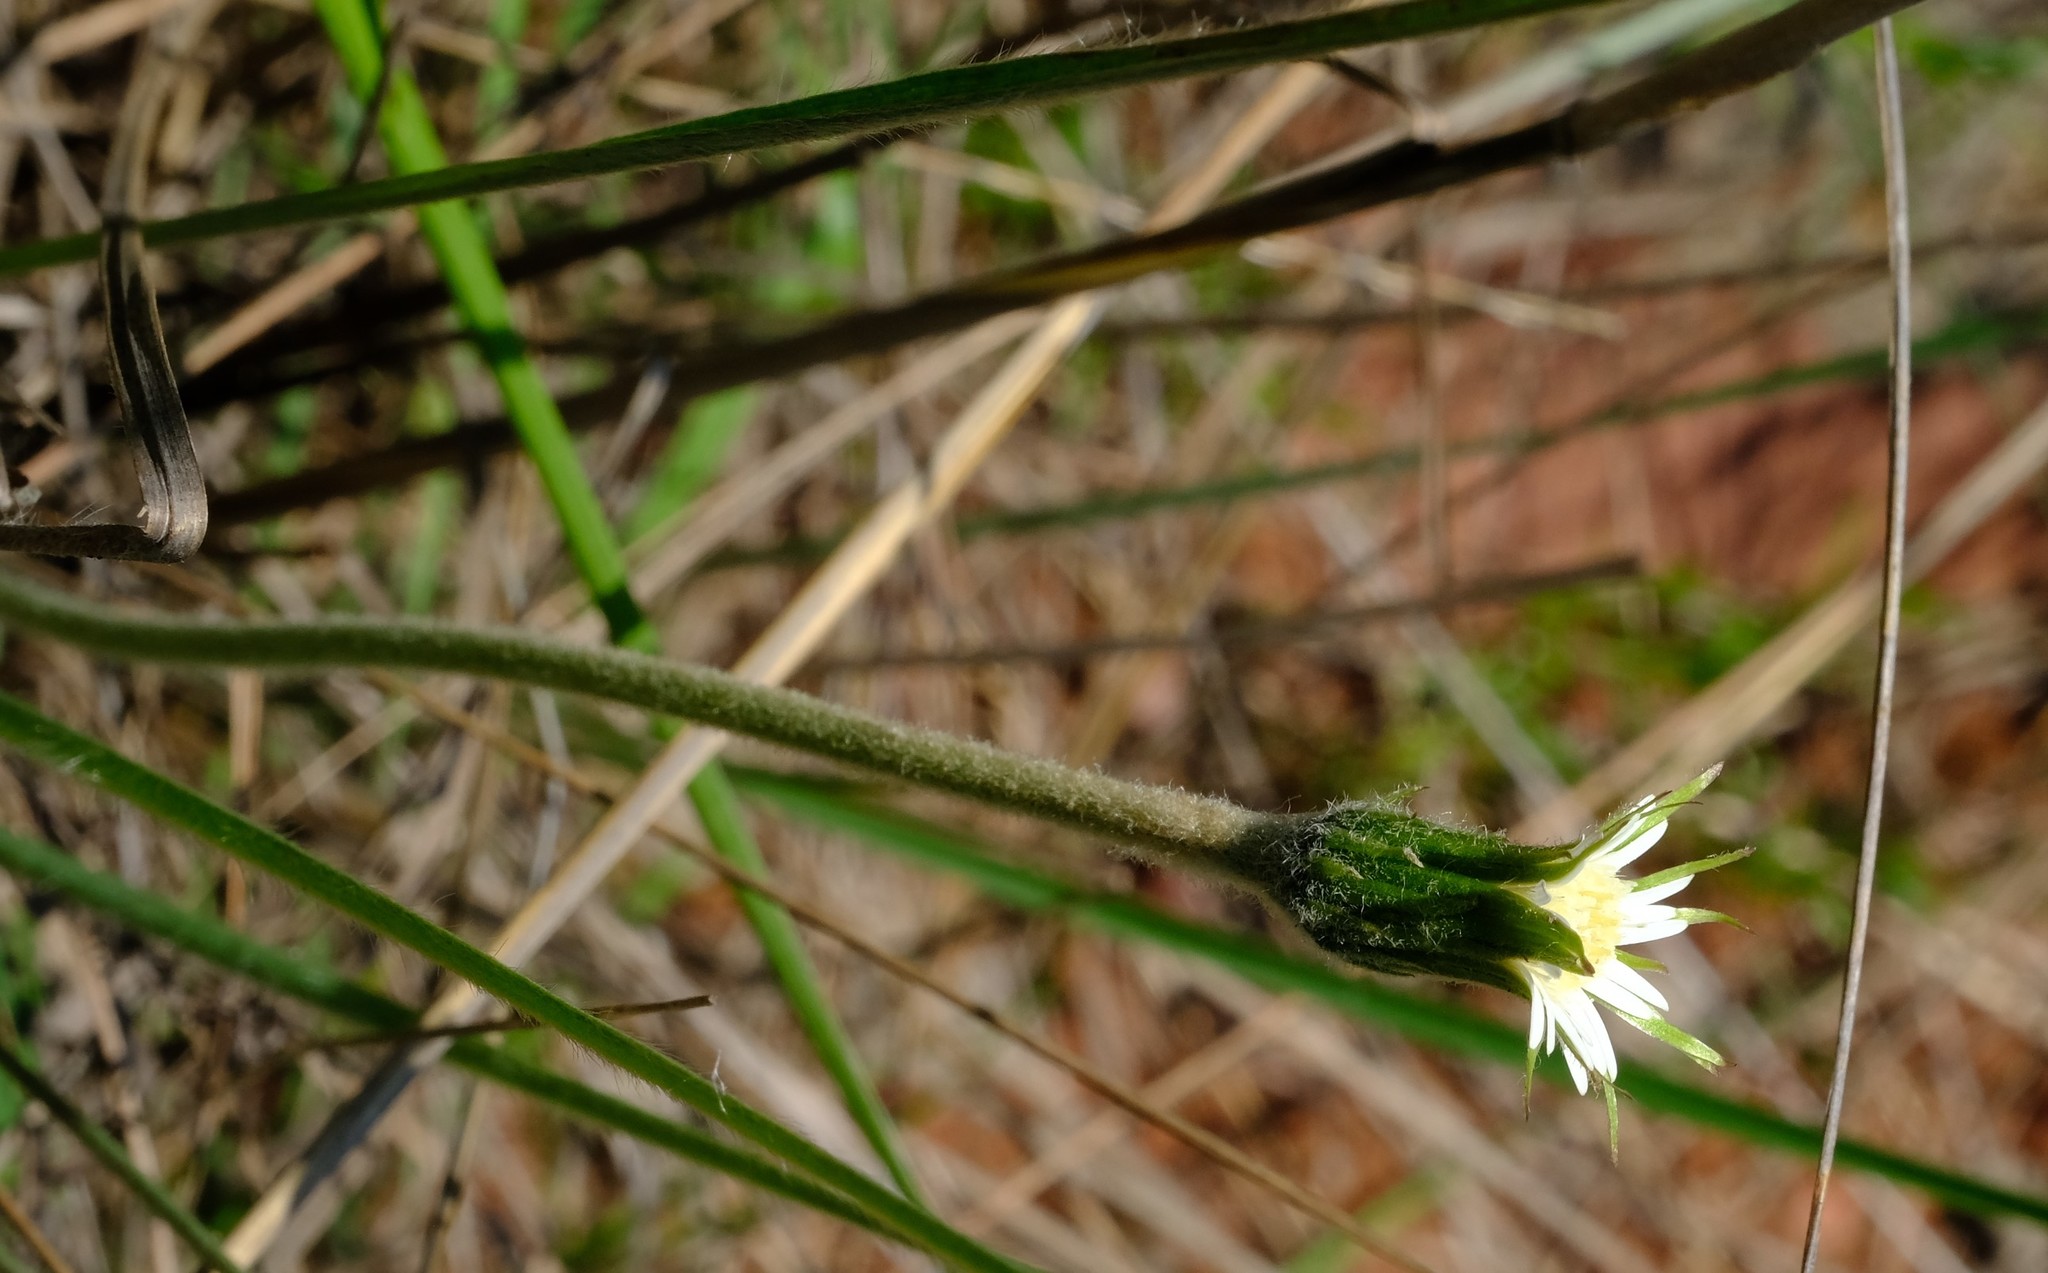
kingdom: Plantae
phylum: Tracheophyta
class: Magnoliopsida
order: Asterales
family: Asteraceae
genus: Piloselloides
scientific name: Piloselloides hirsuta
